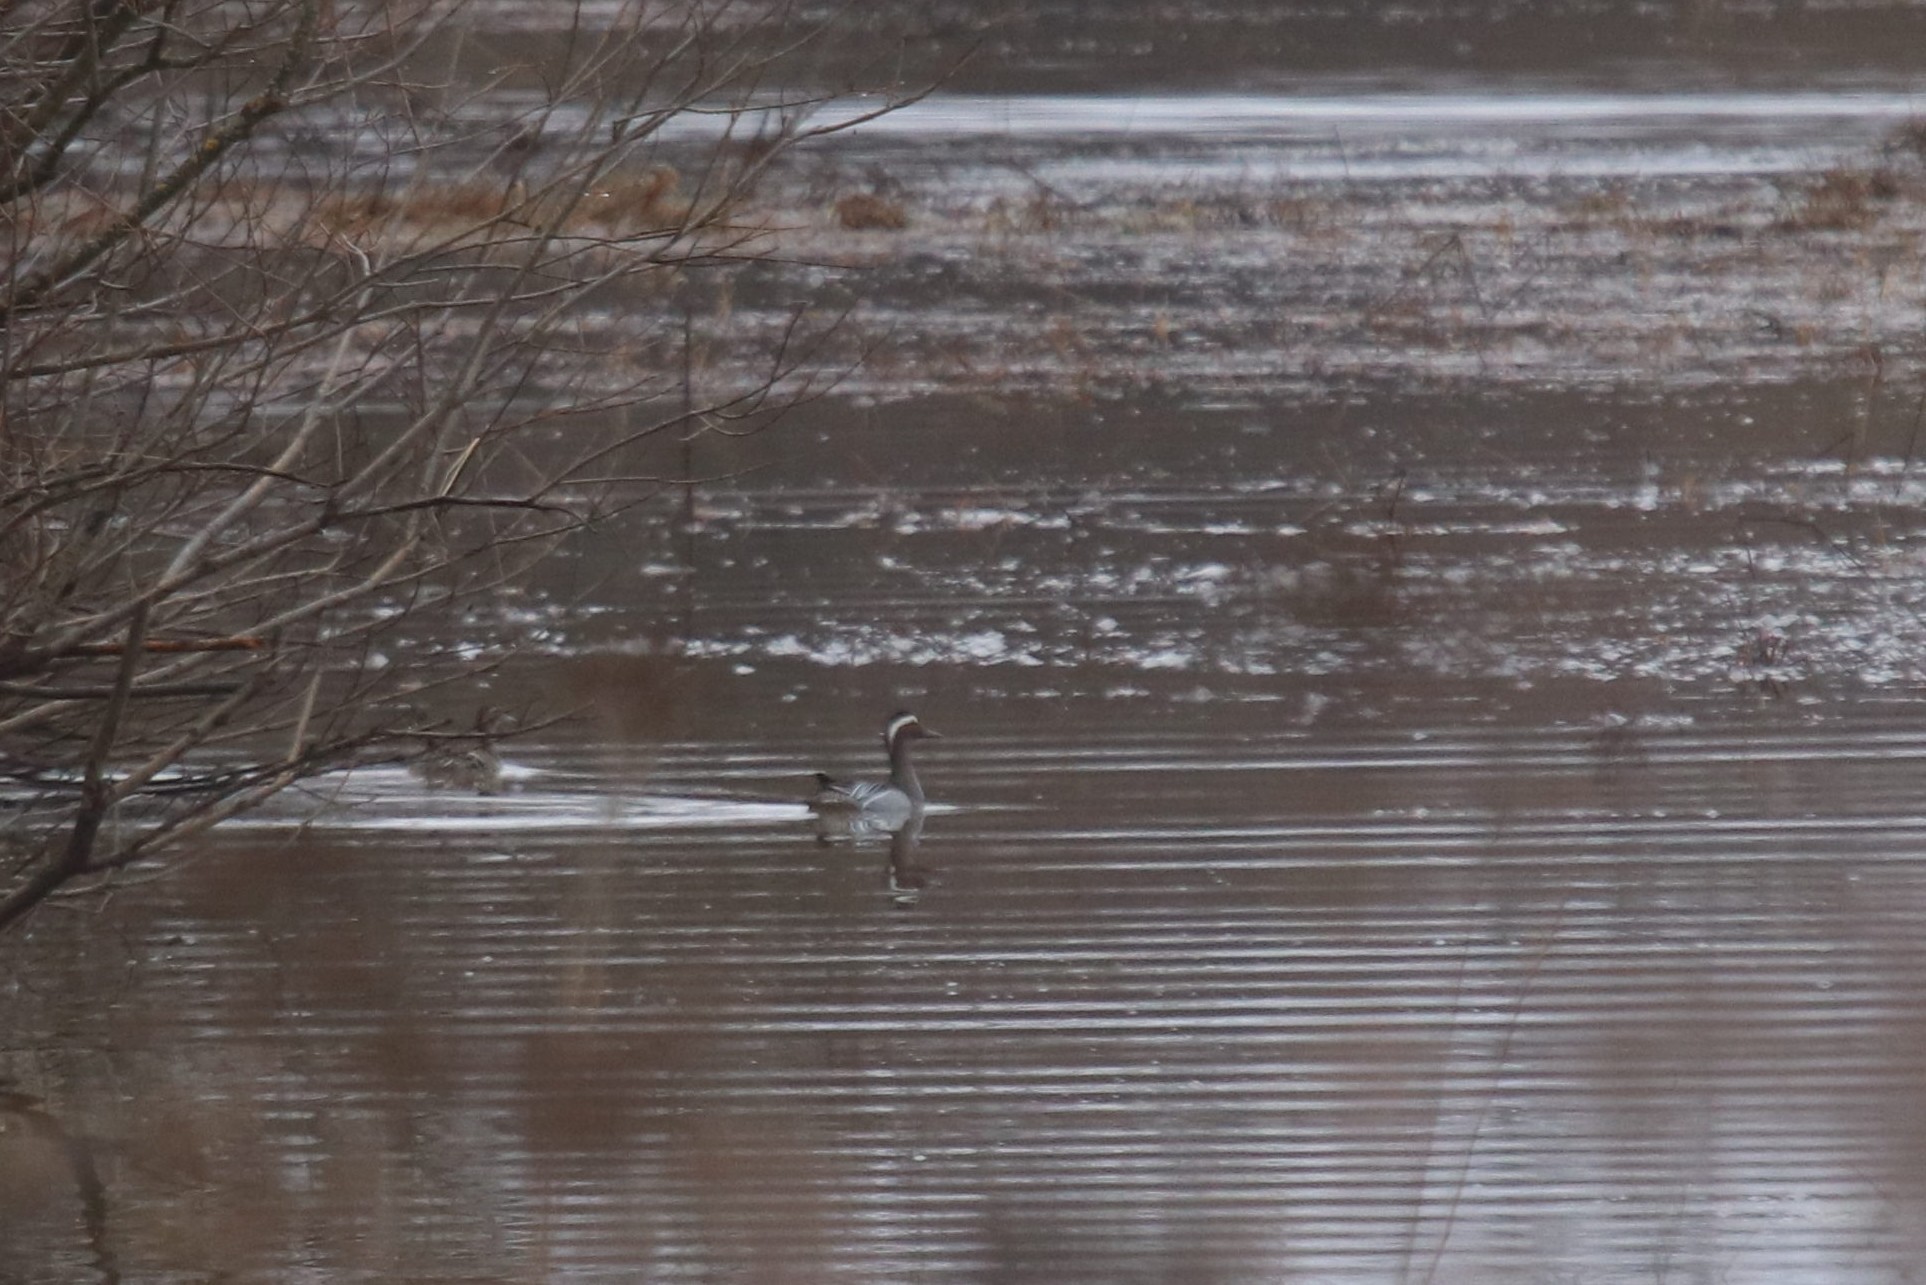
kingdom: Animalia
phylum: Chordata
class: Aves
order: Anseriformes
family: Anatidae
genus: Spatula
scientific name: Spatula querquedula
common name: Garganey
